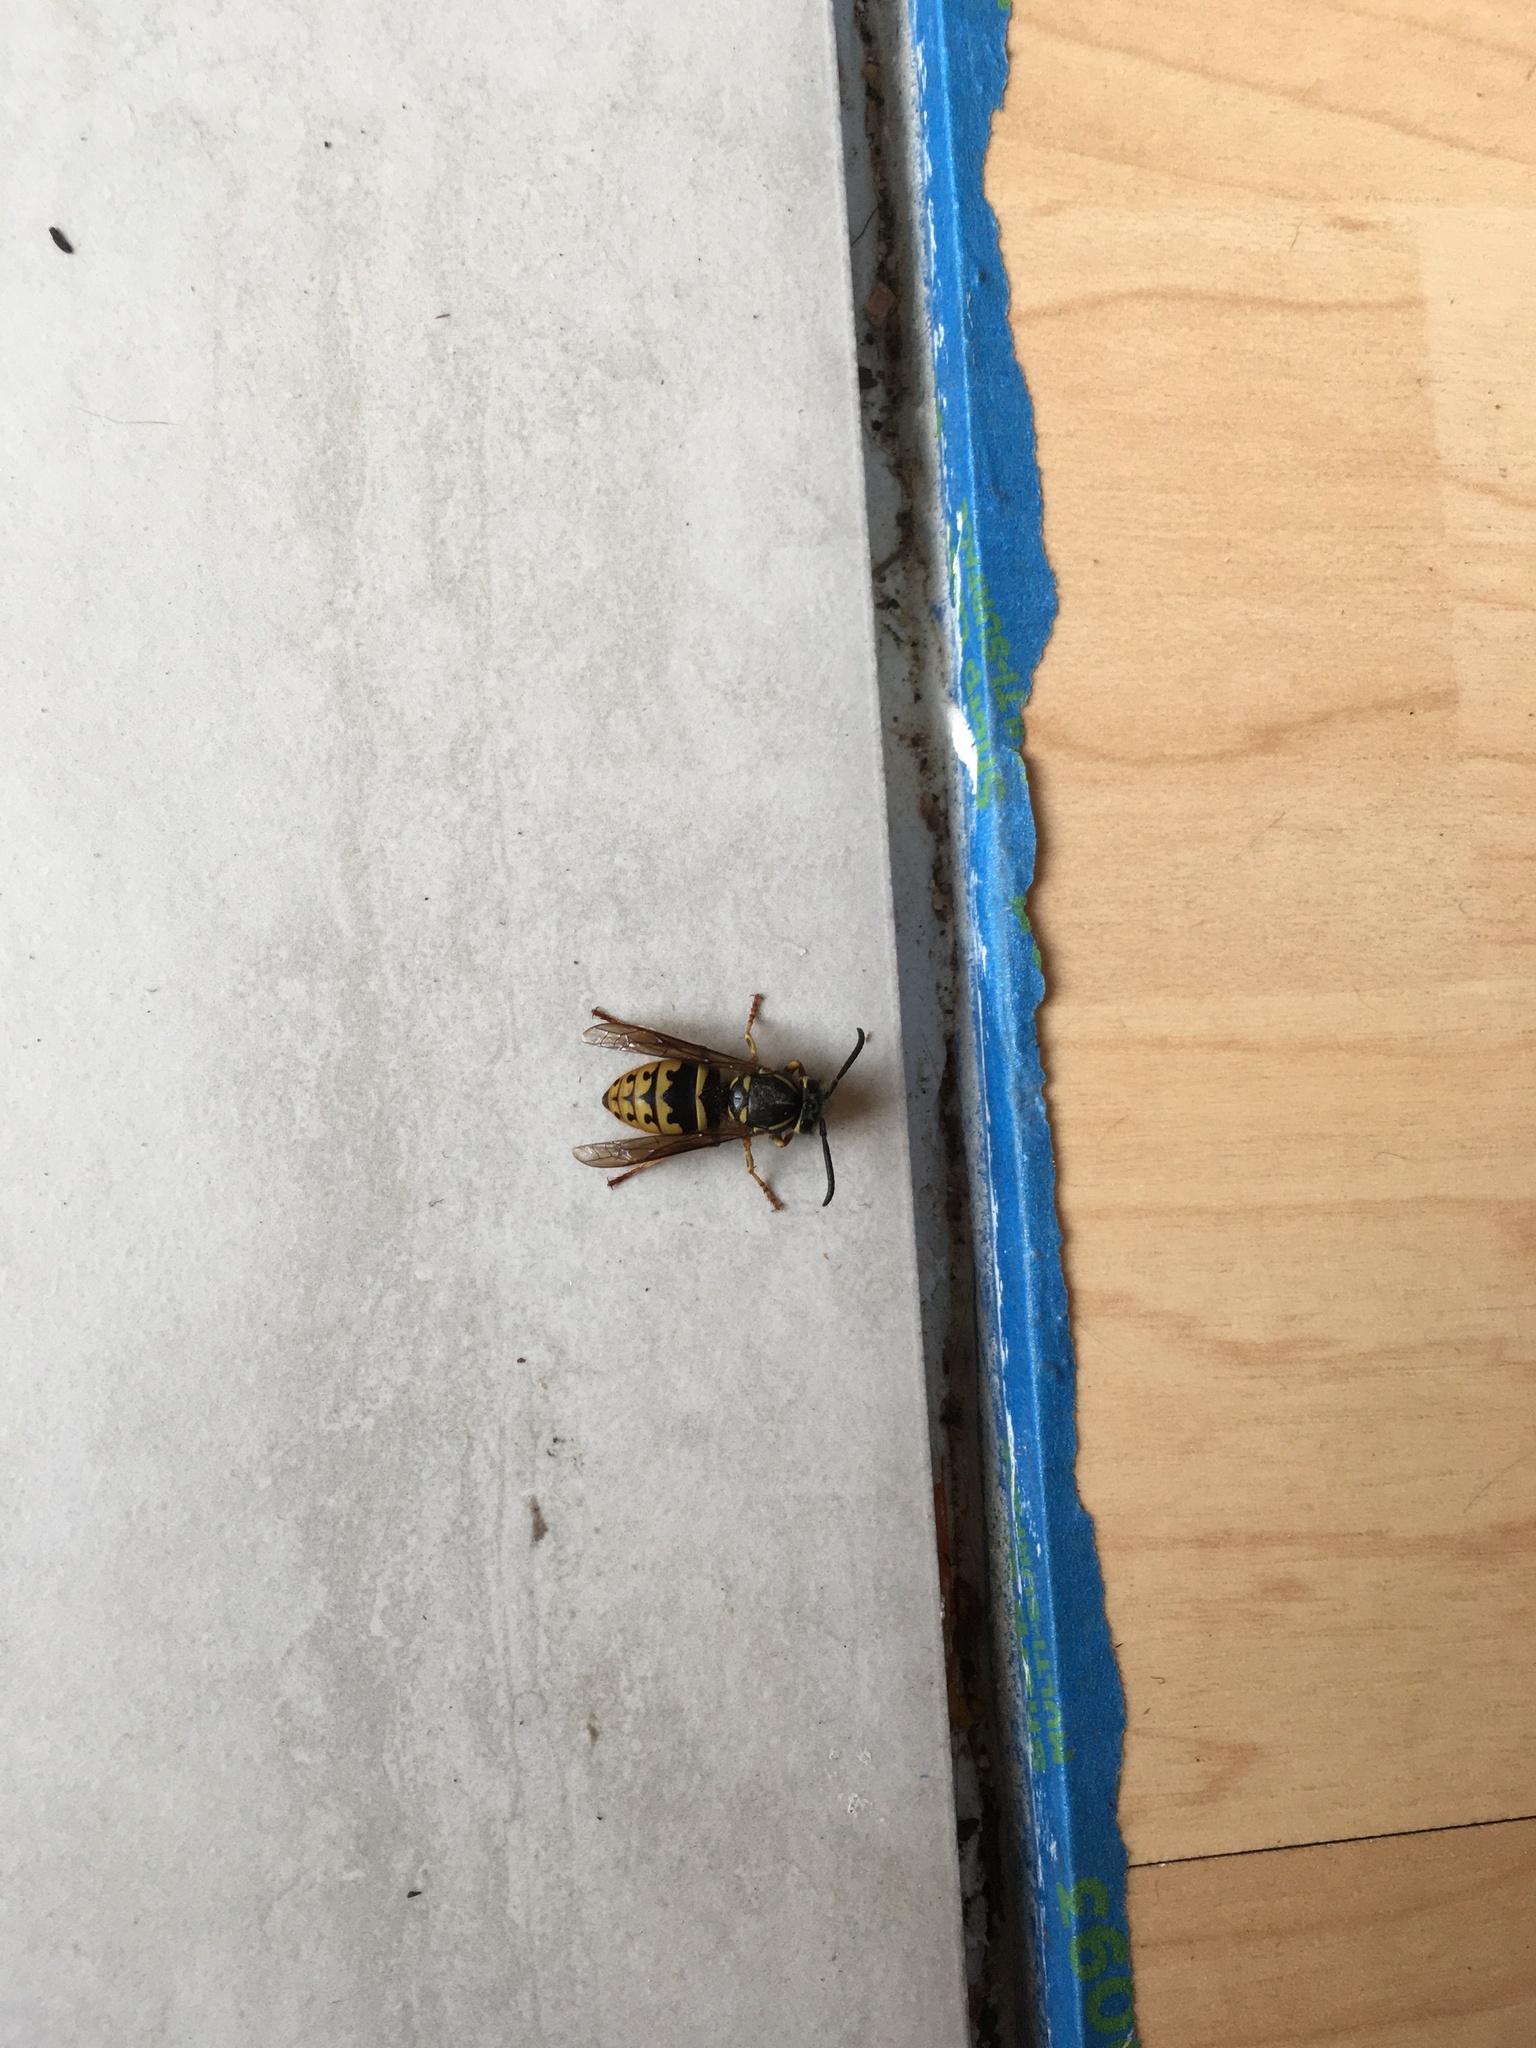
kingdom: Animalia
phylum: Arthropoda
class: Insecta
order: Hymenoptera
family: Vespidae
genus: Vespula
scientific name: Vespula alascensis
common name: Alaska yellowjacket
